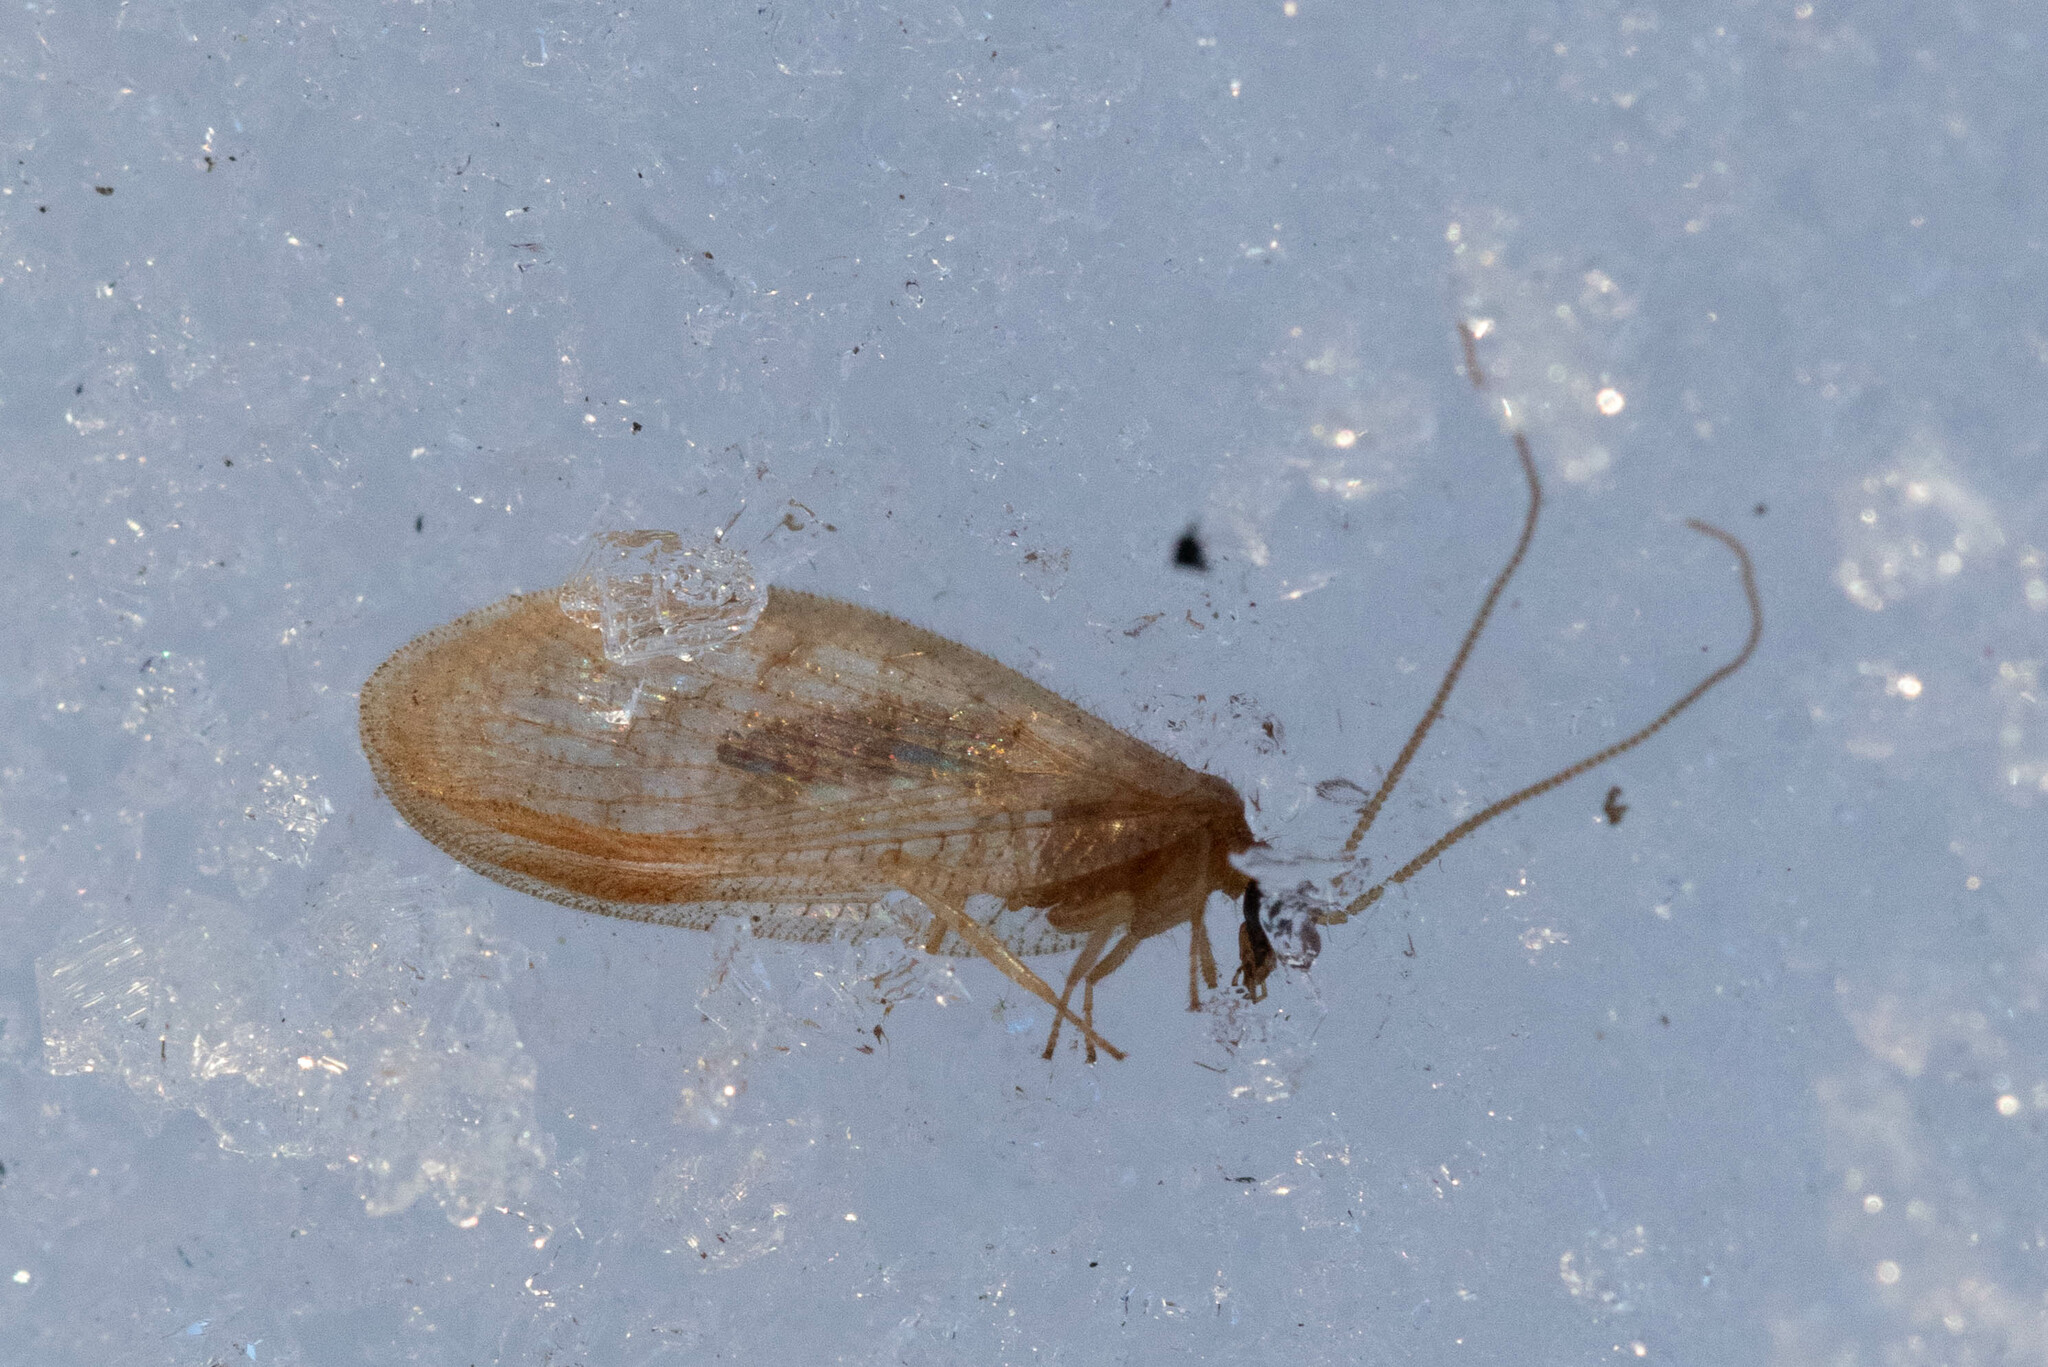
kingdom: Animalia
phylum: Arthropoda
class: Insecta
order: Neuroptera
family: Hemerobiidae
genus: Hemerobius
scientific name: Hemerobius stigma
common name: Brown pine lacewing
